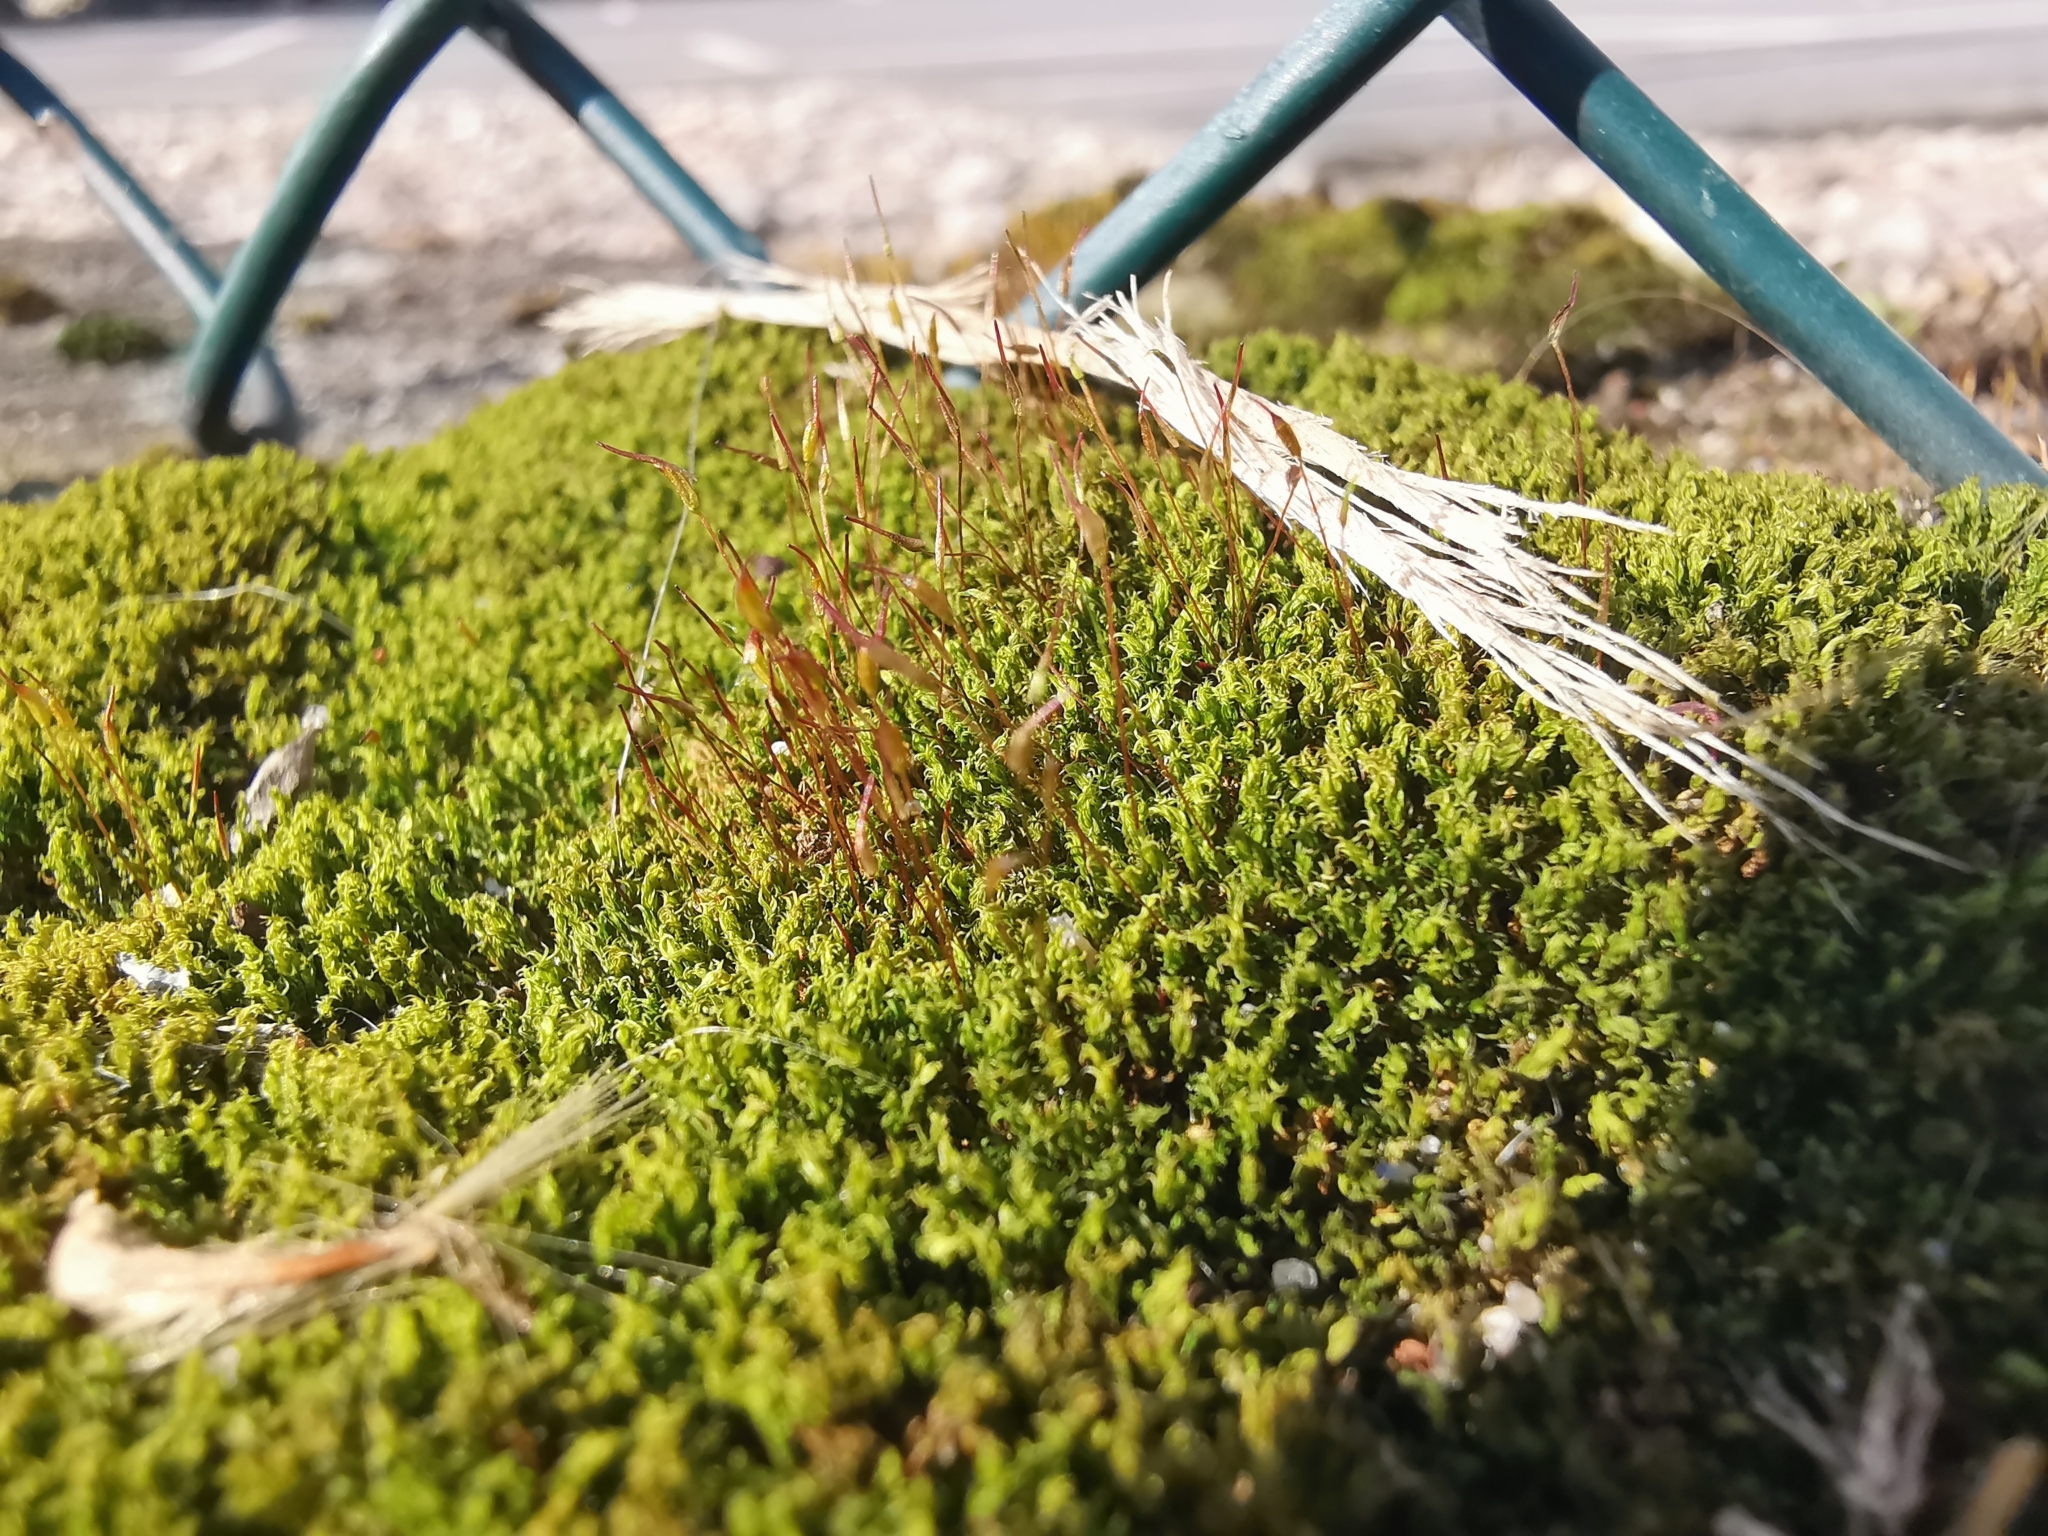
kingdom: Plantae
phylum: Bryophyta
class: Bryopsida
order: Dicranales
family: Ditrichaceae
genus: Ceratodon
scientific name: Ceratodon purpureus
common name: Redshank
